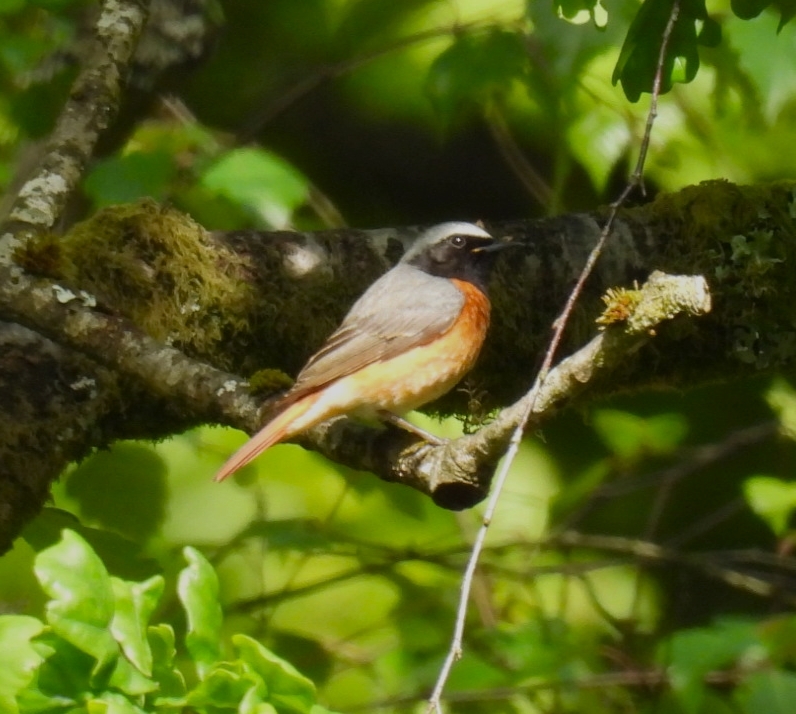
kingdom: Animalia
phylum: Chordata
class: Aves
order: Passeriformes
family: Muscicapidae
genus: Phoenicurus
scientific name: Phoenicurus phoenicurus
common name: Common redstart
